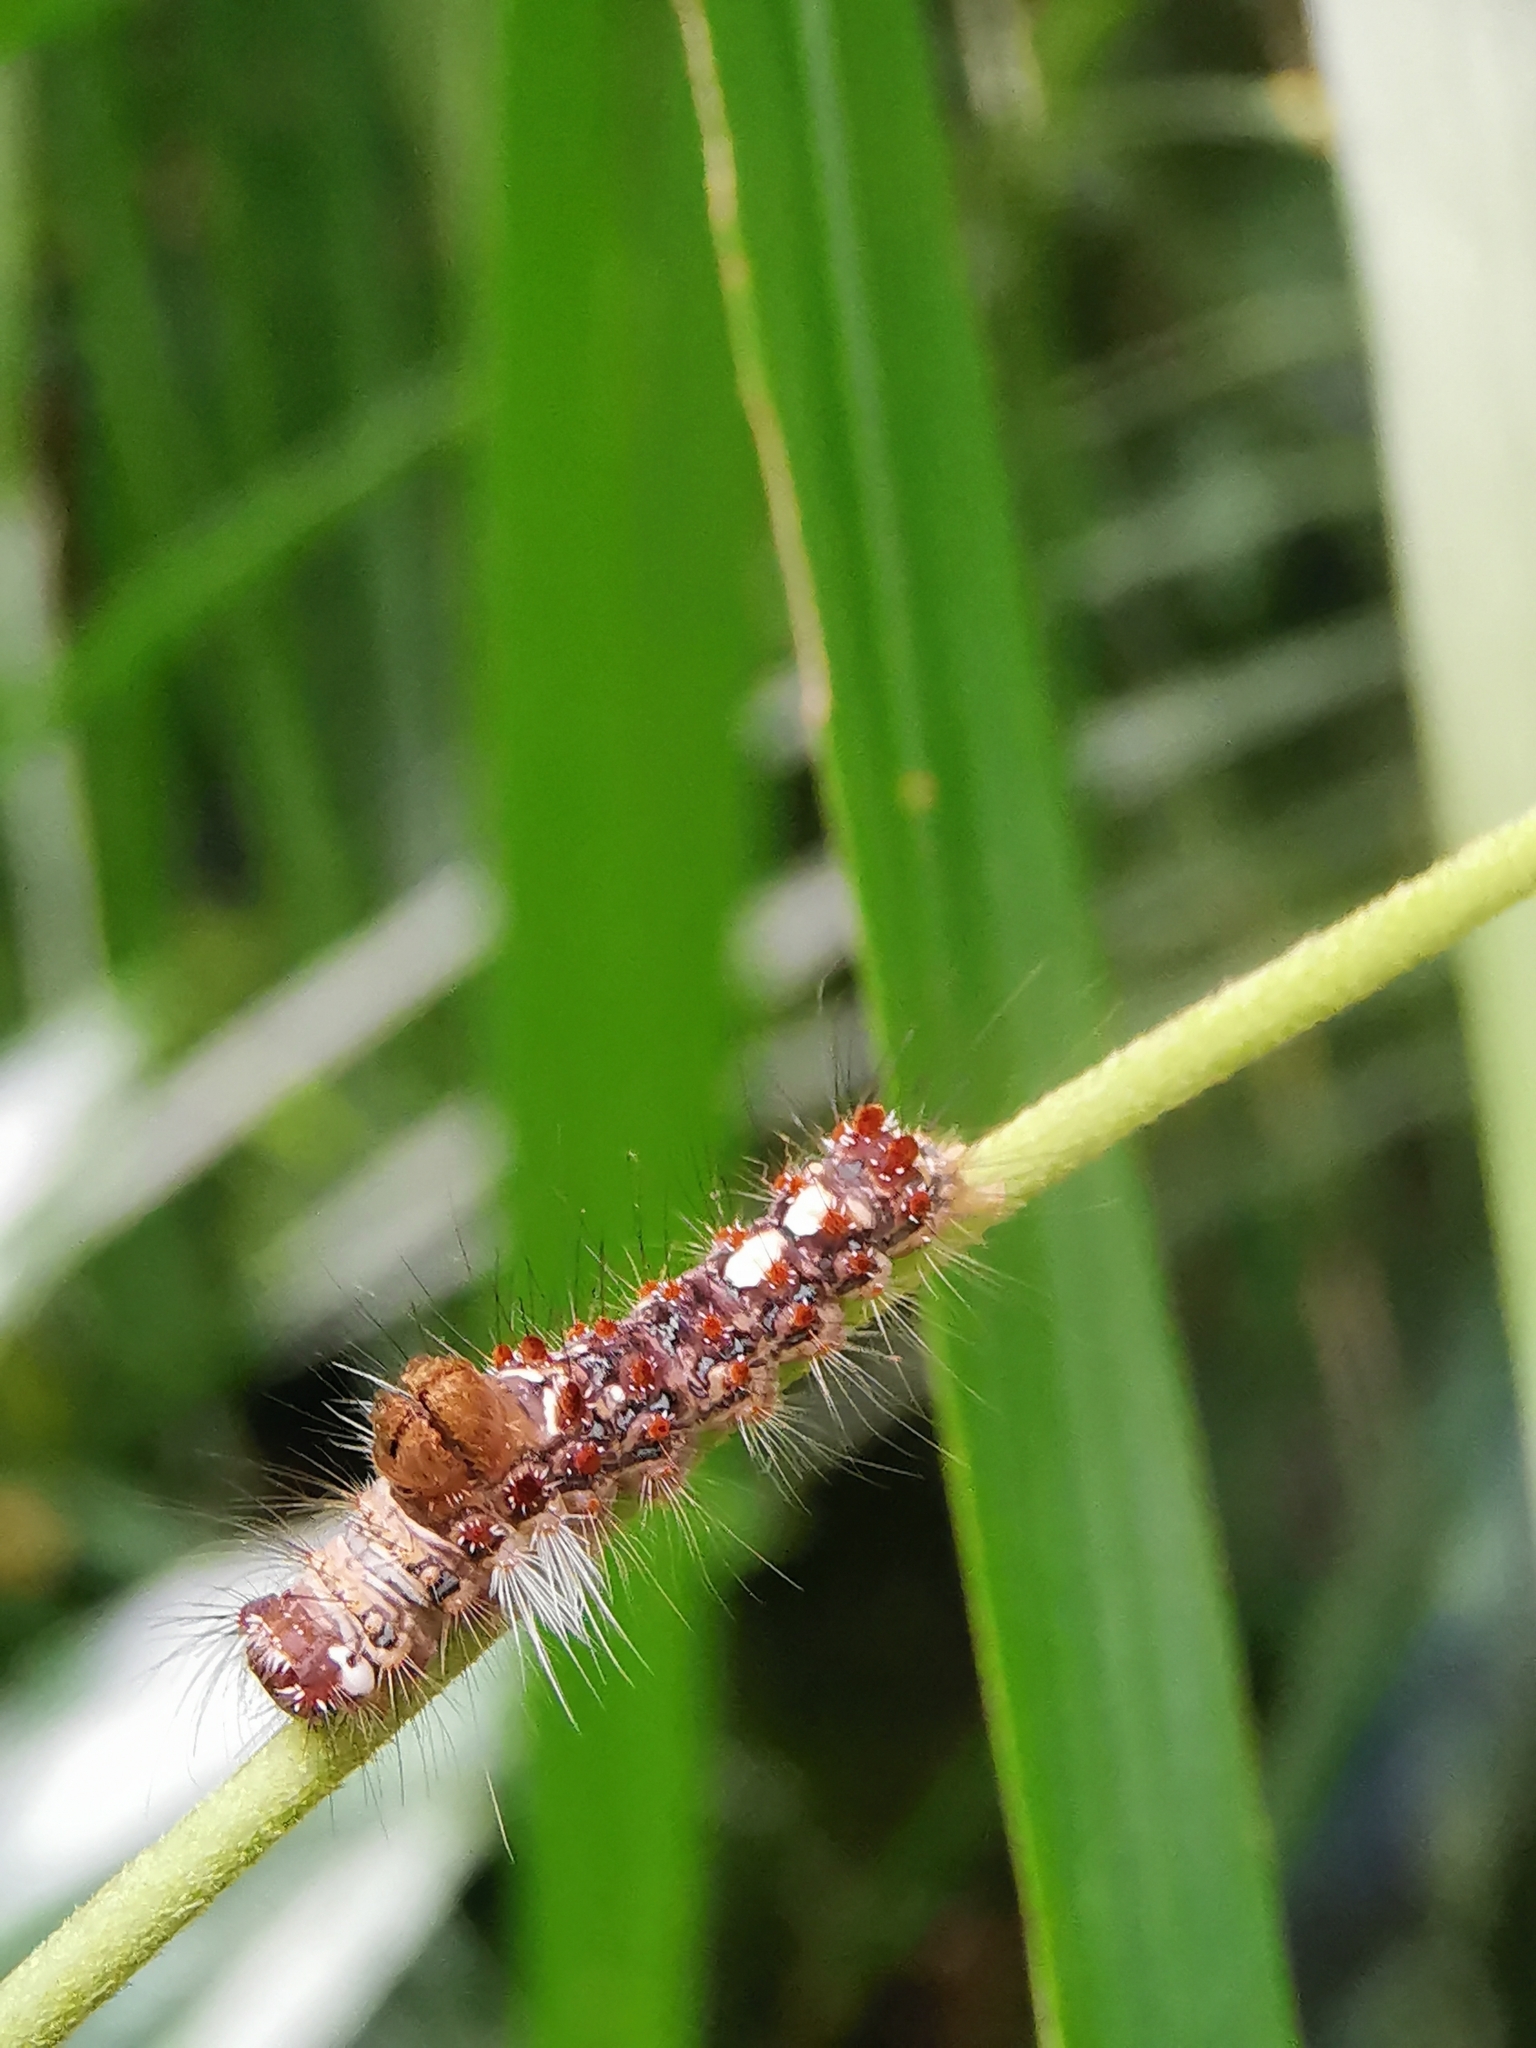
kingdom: Animalia
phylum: Arthropoda
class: Insecta
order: Lepidoptera
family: Erebidae
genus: Perina
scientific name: Perina sunda
